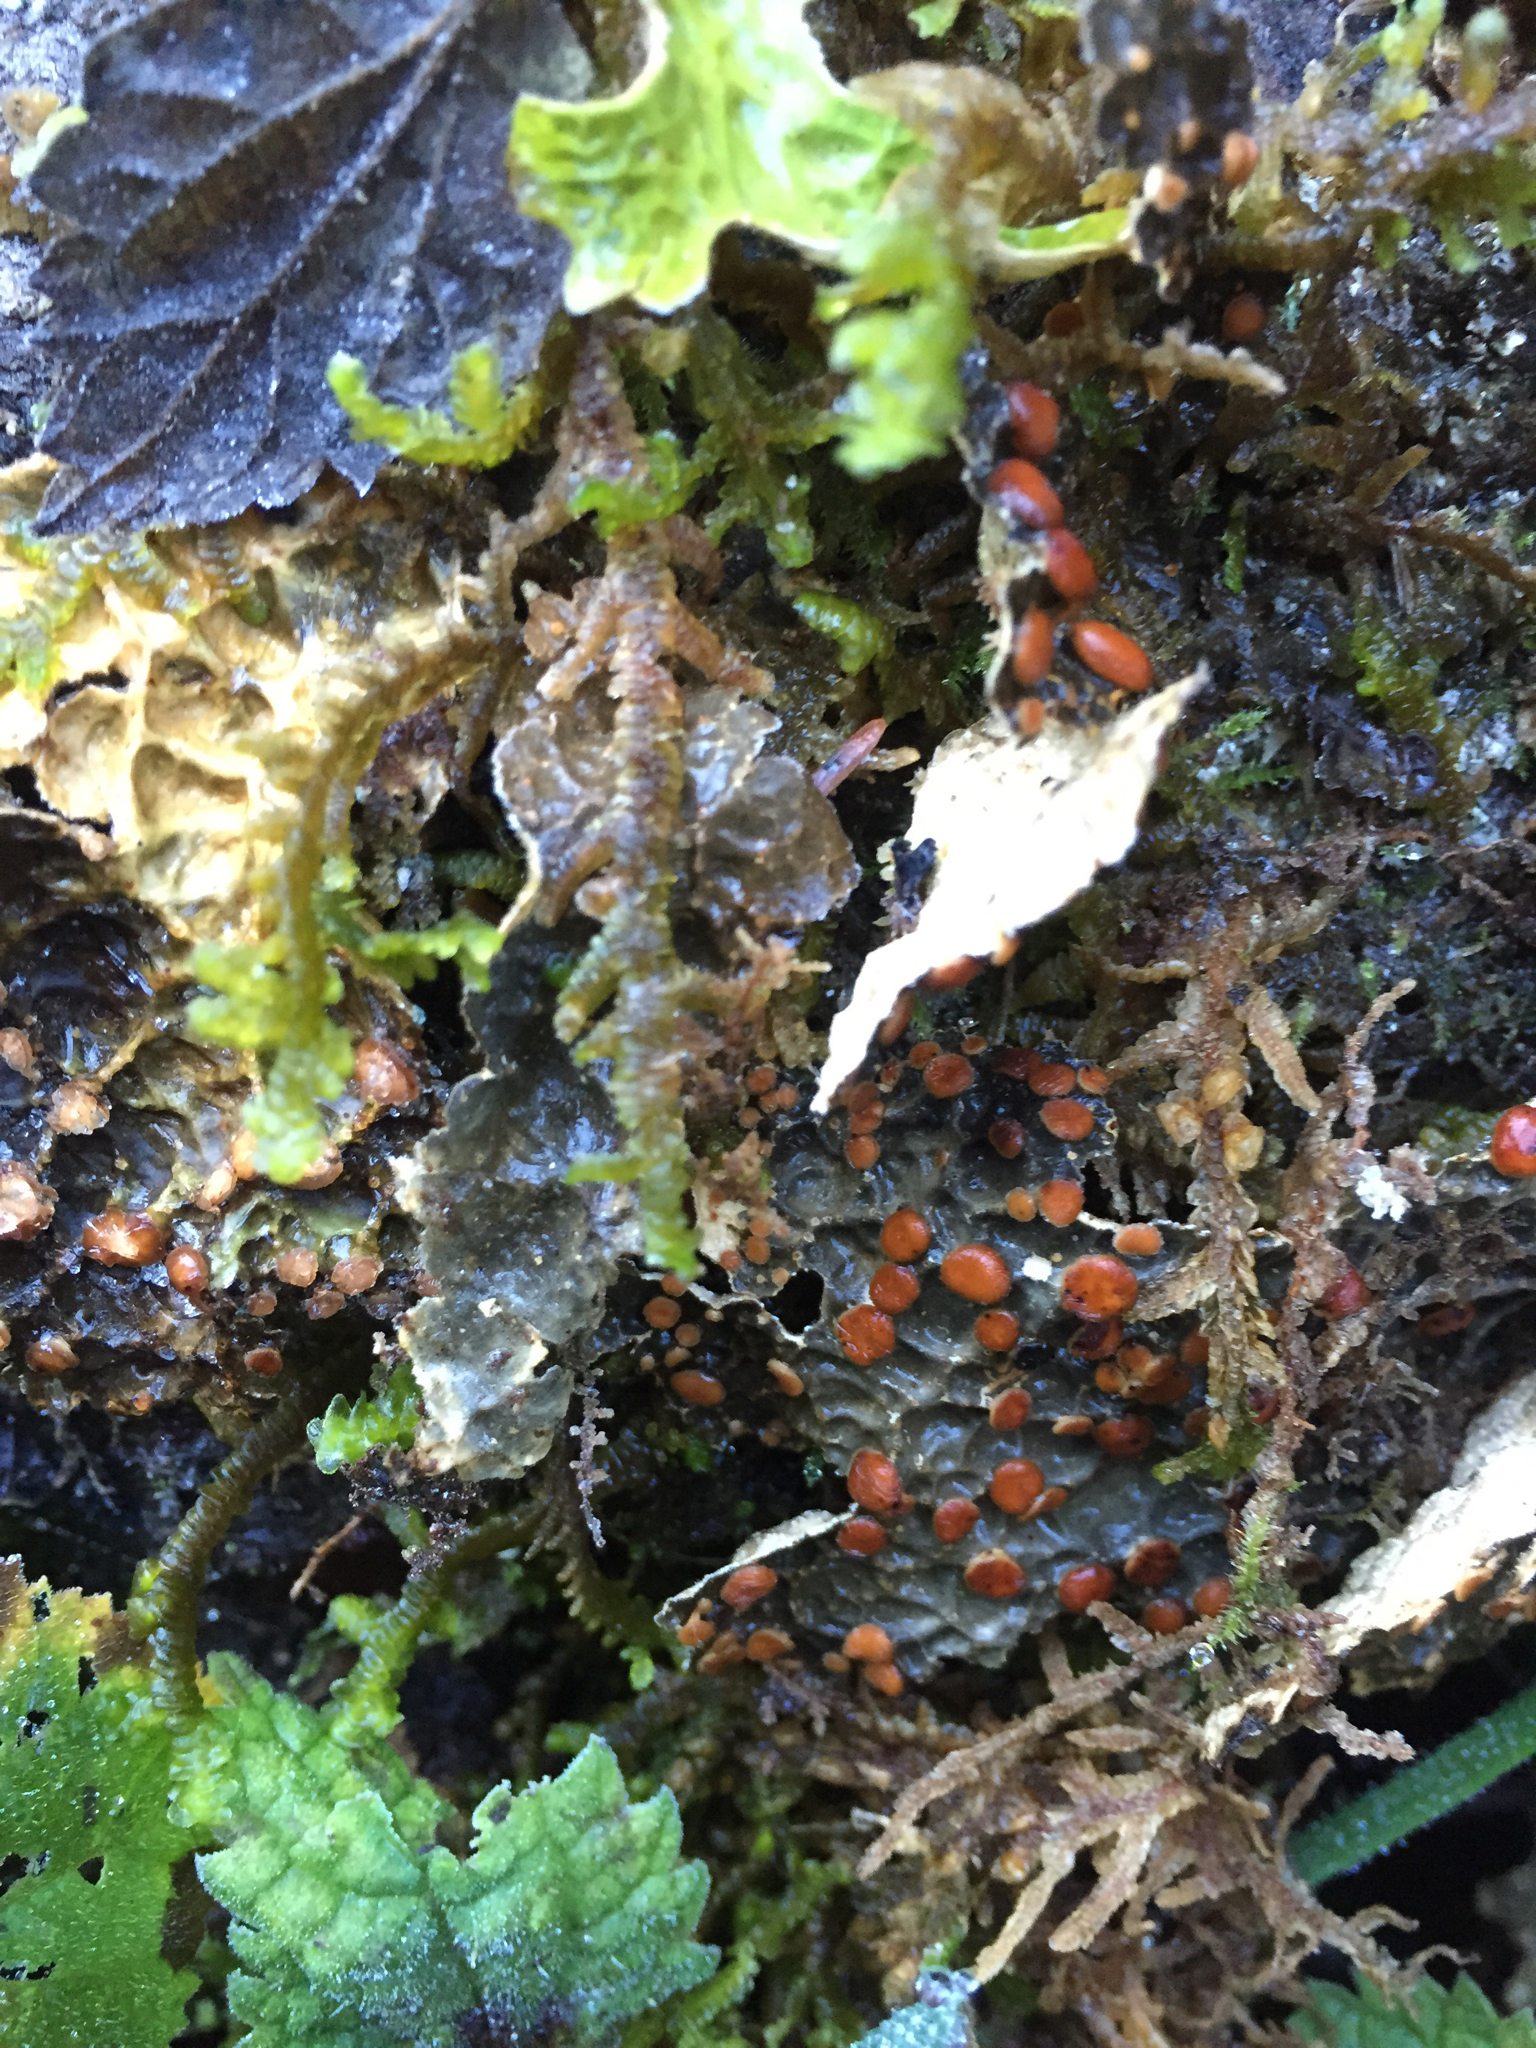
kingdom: Fungi
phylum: Ascomycota
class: Lecanoromycetes
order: Peltigerales
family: Lobariaceae
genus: Lobaria
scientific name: Lobaria anthraspis
